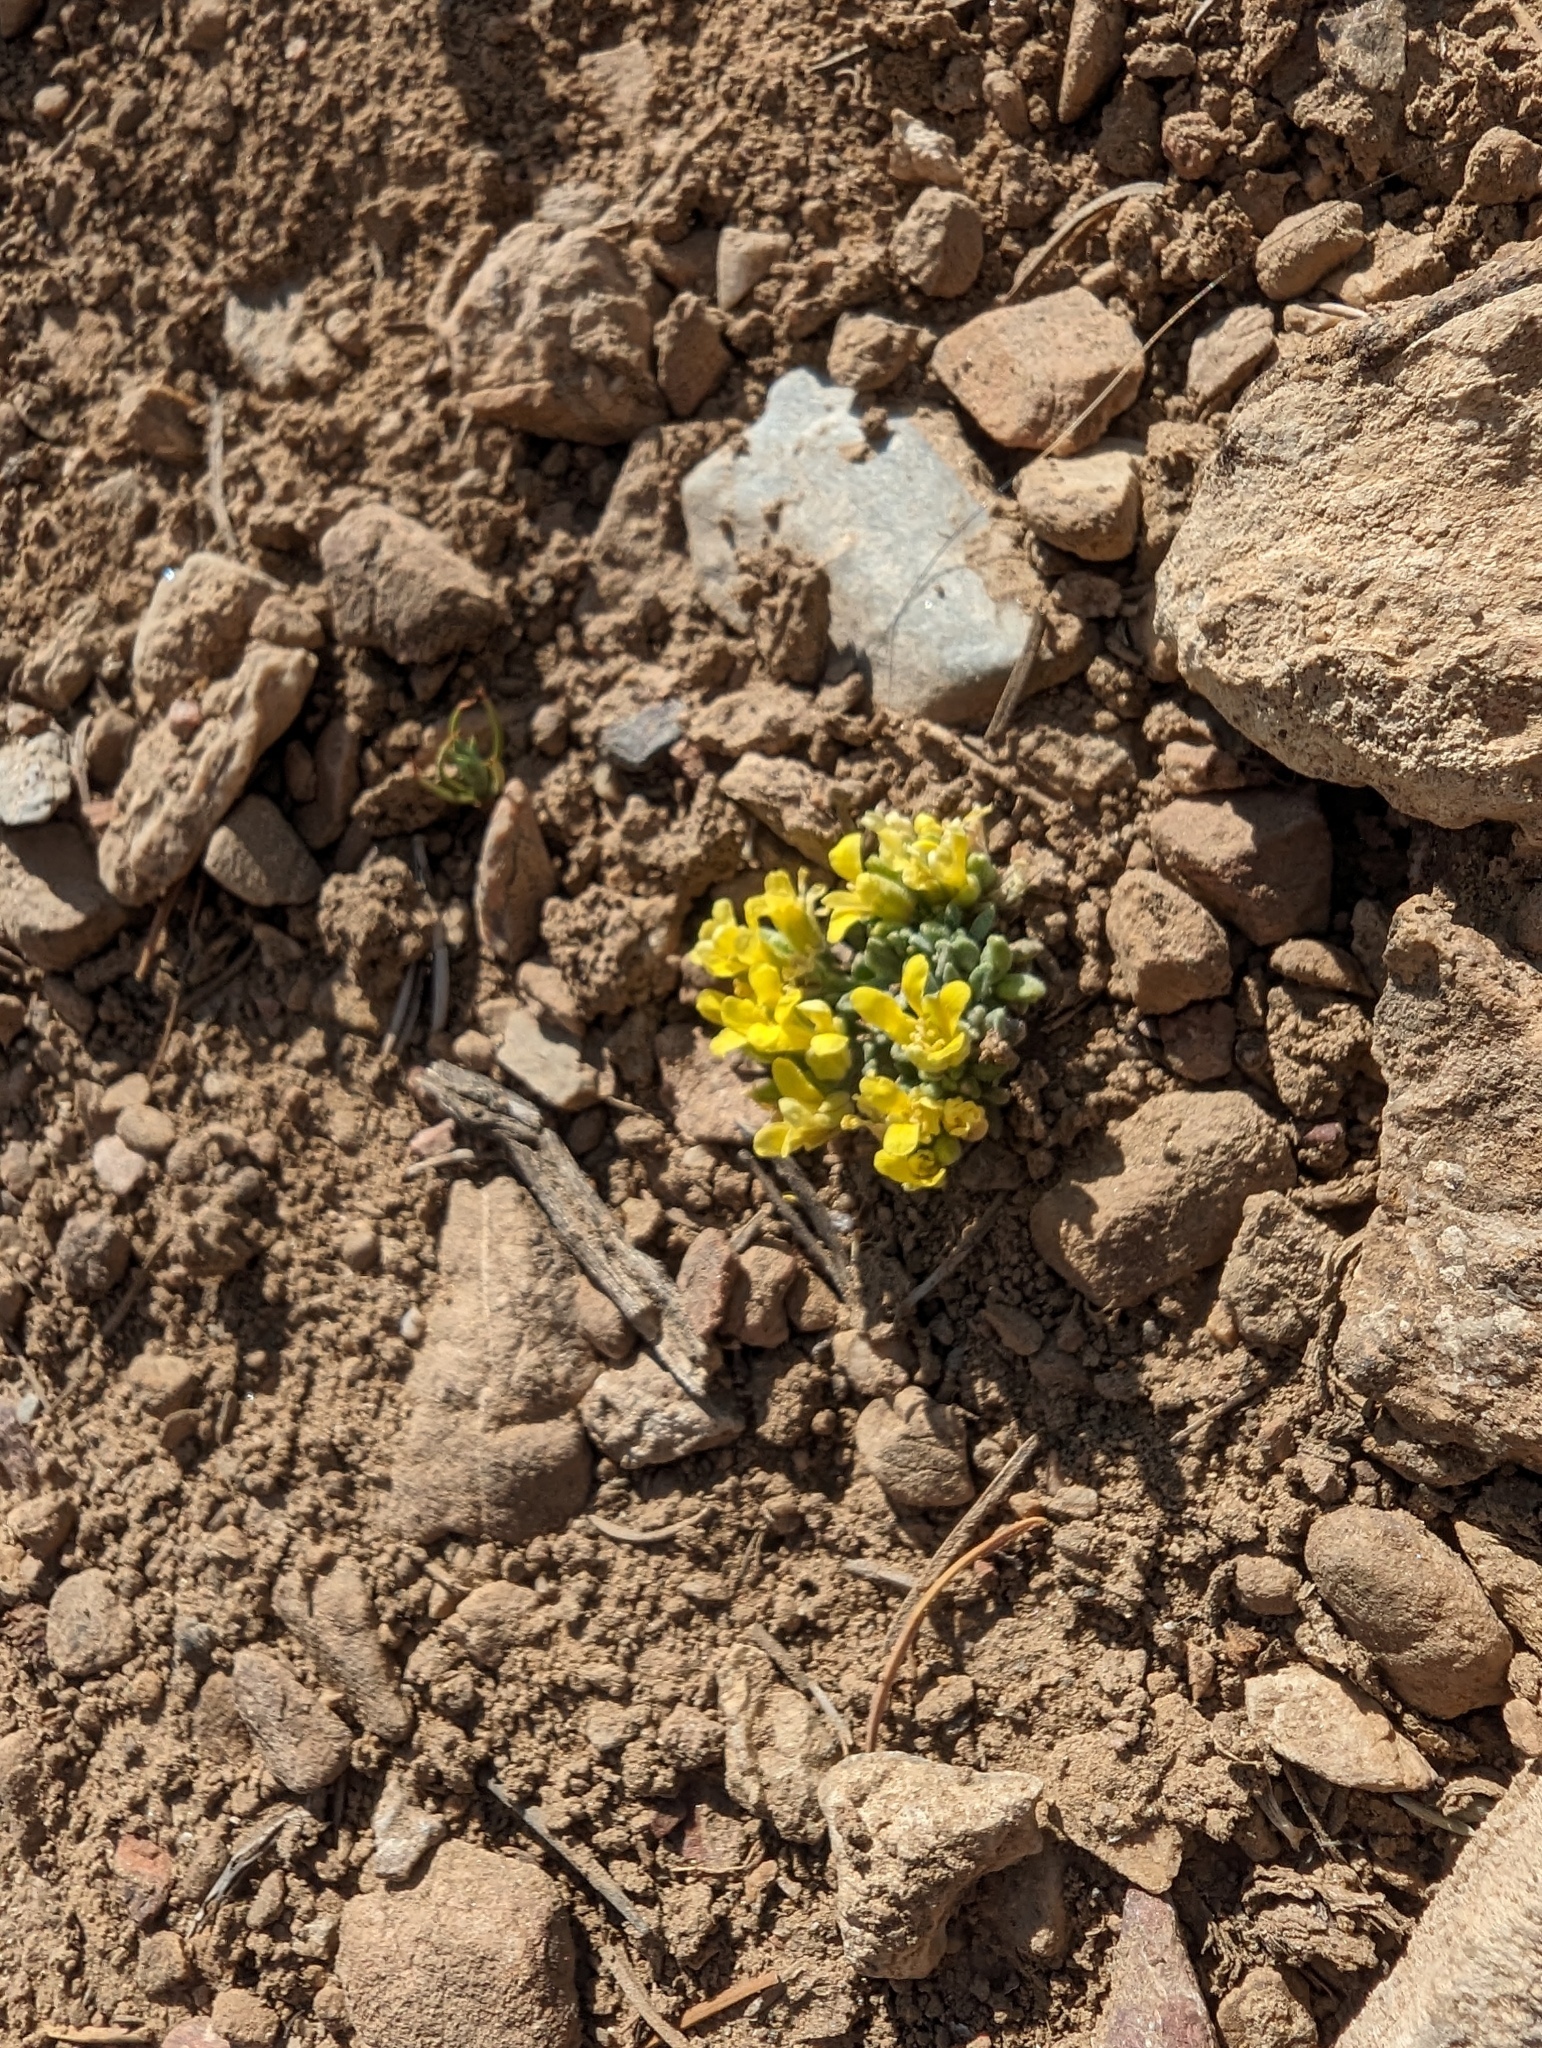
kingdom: Plantae
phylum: Tracheophyta
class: Magnoliopsida
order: Brassicales
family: Brassicaceae
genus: Physaria
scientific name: Physaria kingii
